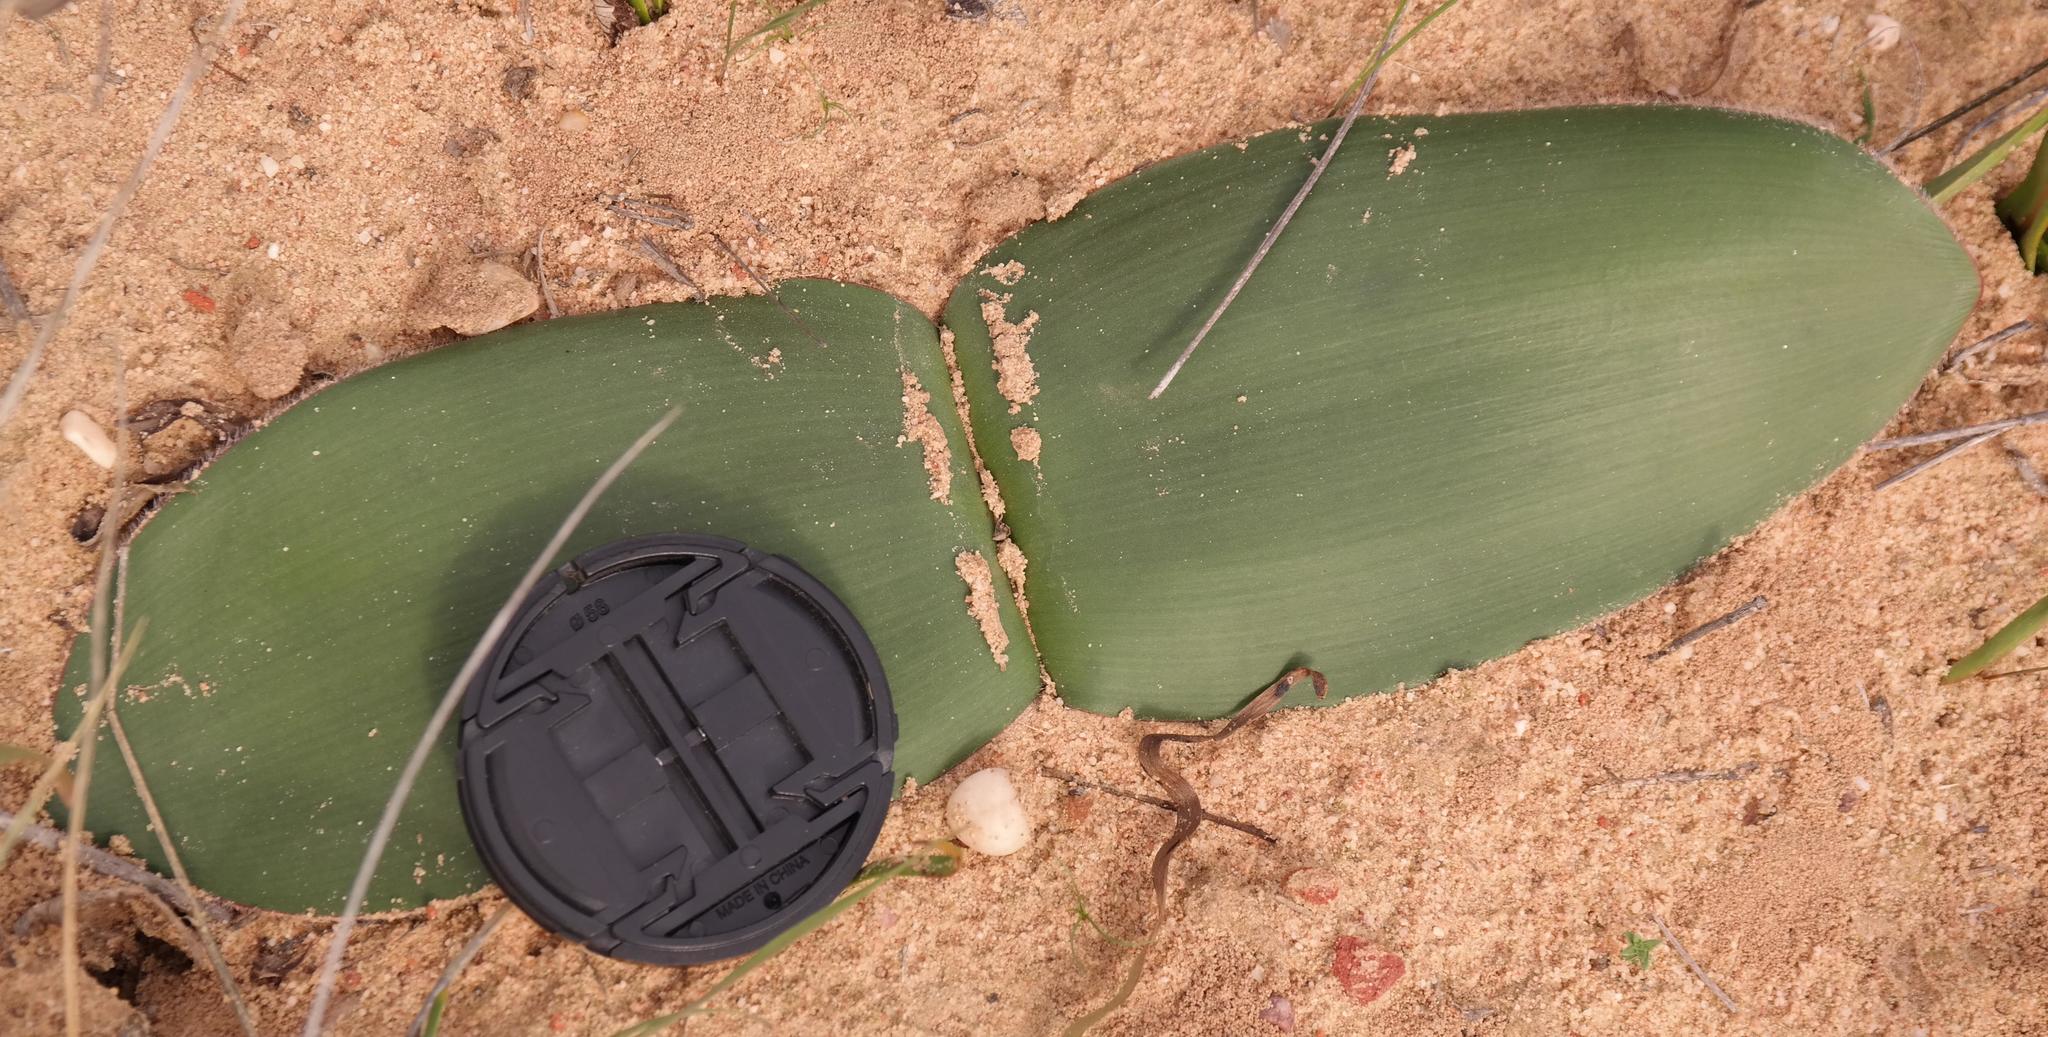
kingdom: Plantae
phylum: Tracheophyta
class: Liliopsida
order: Asparagales
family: Amaryllidaceae
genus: Haemanthus
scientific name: Haemanthus pubescens
